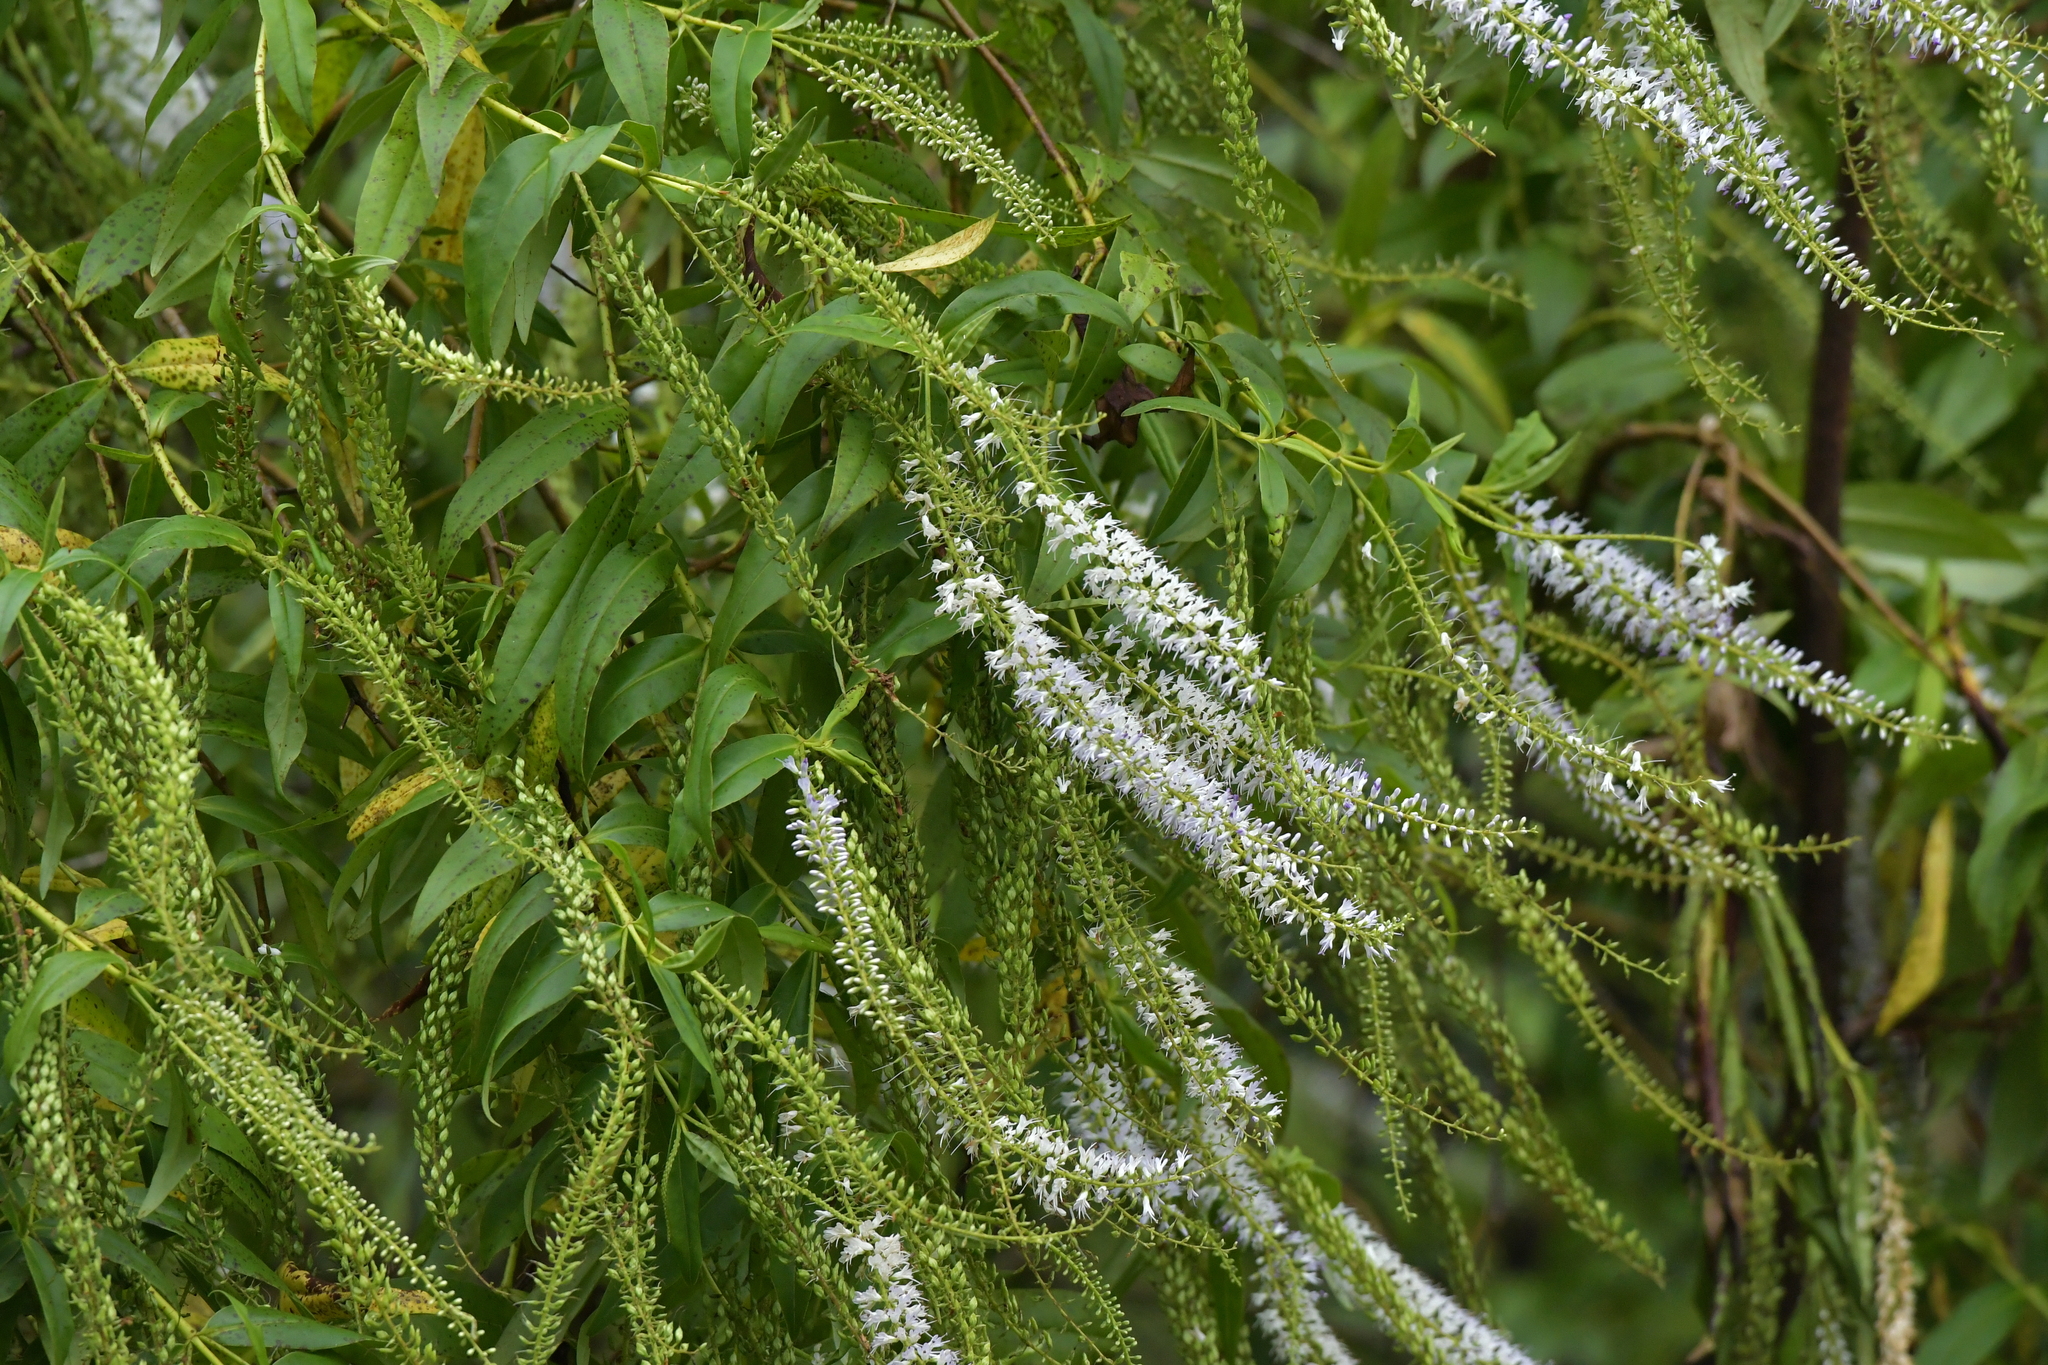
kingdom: Plantae
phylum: Tracheophyta
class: Magnoliopsida
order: Lamiales
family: Plantaginaceae
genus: Veronica
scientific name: Veronica stricta
